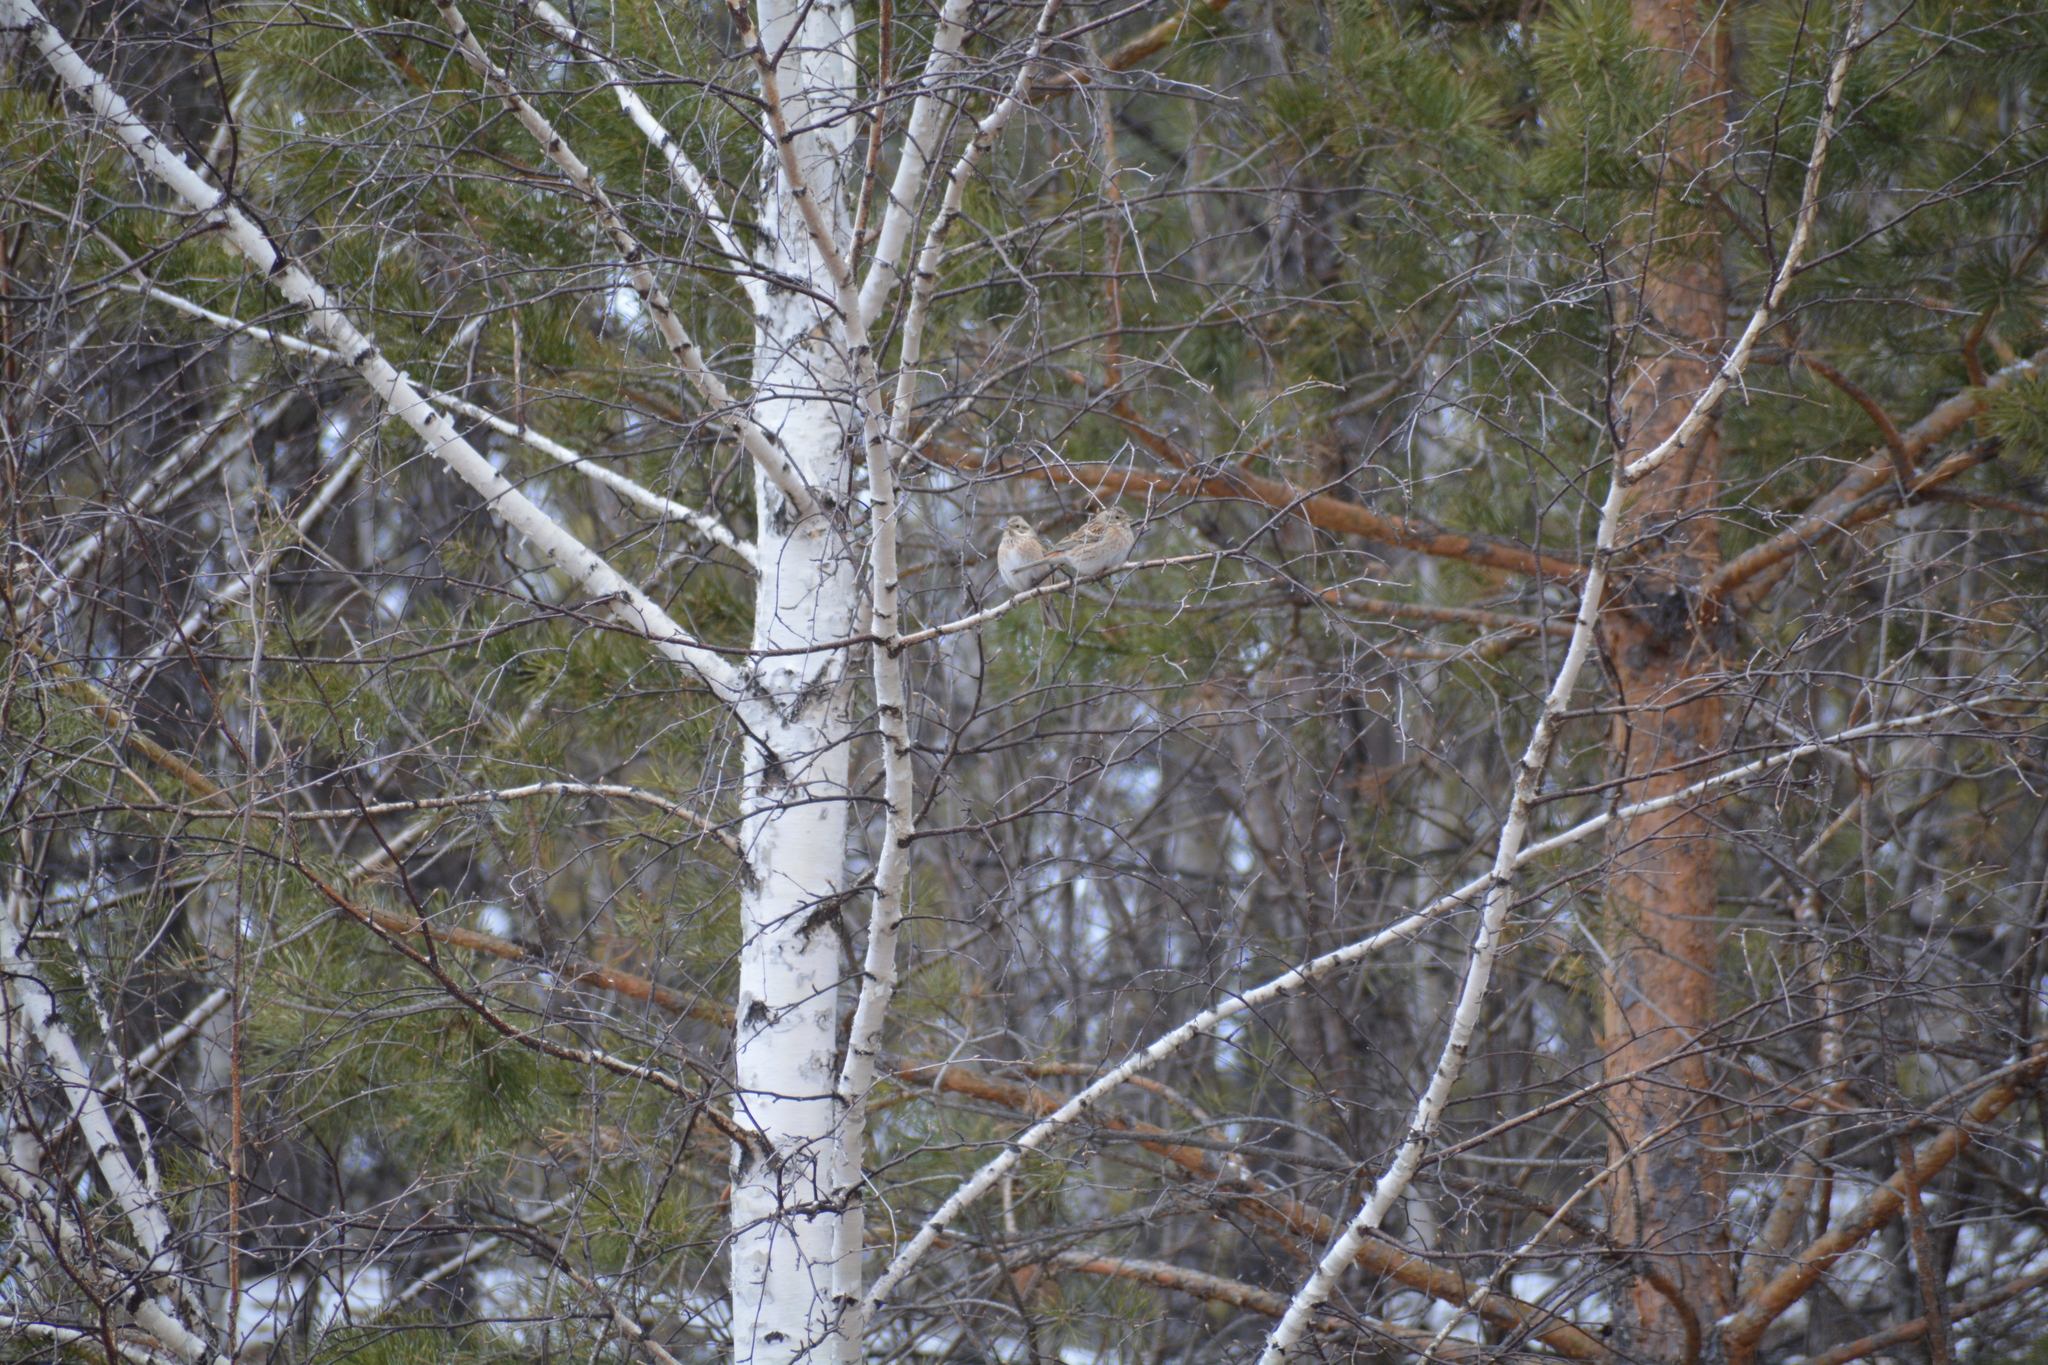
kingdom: Animalia
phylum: Chordata
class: Aves
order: Passeriformes
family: Emberizidae
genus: Emberiza
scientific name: Emberiza leucocephalos
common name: Pine bunting
